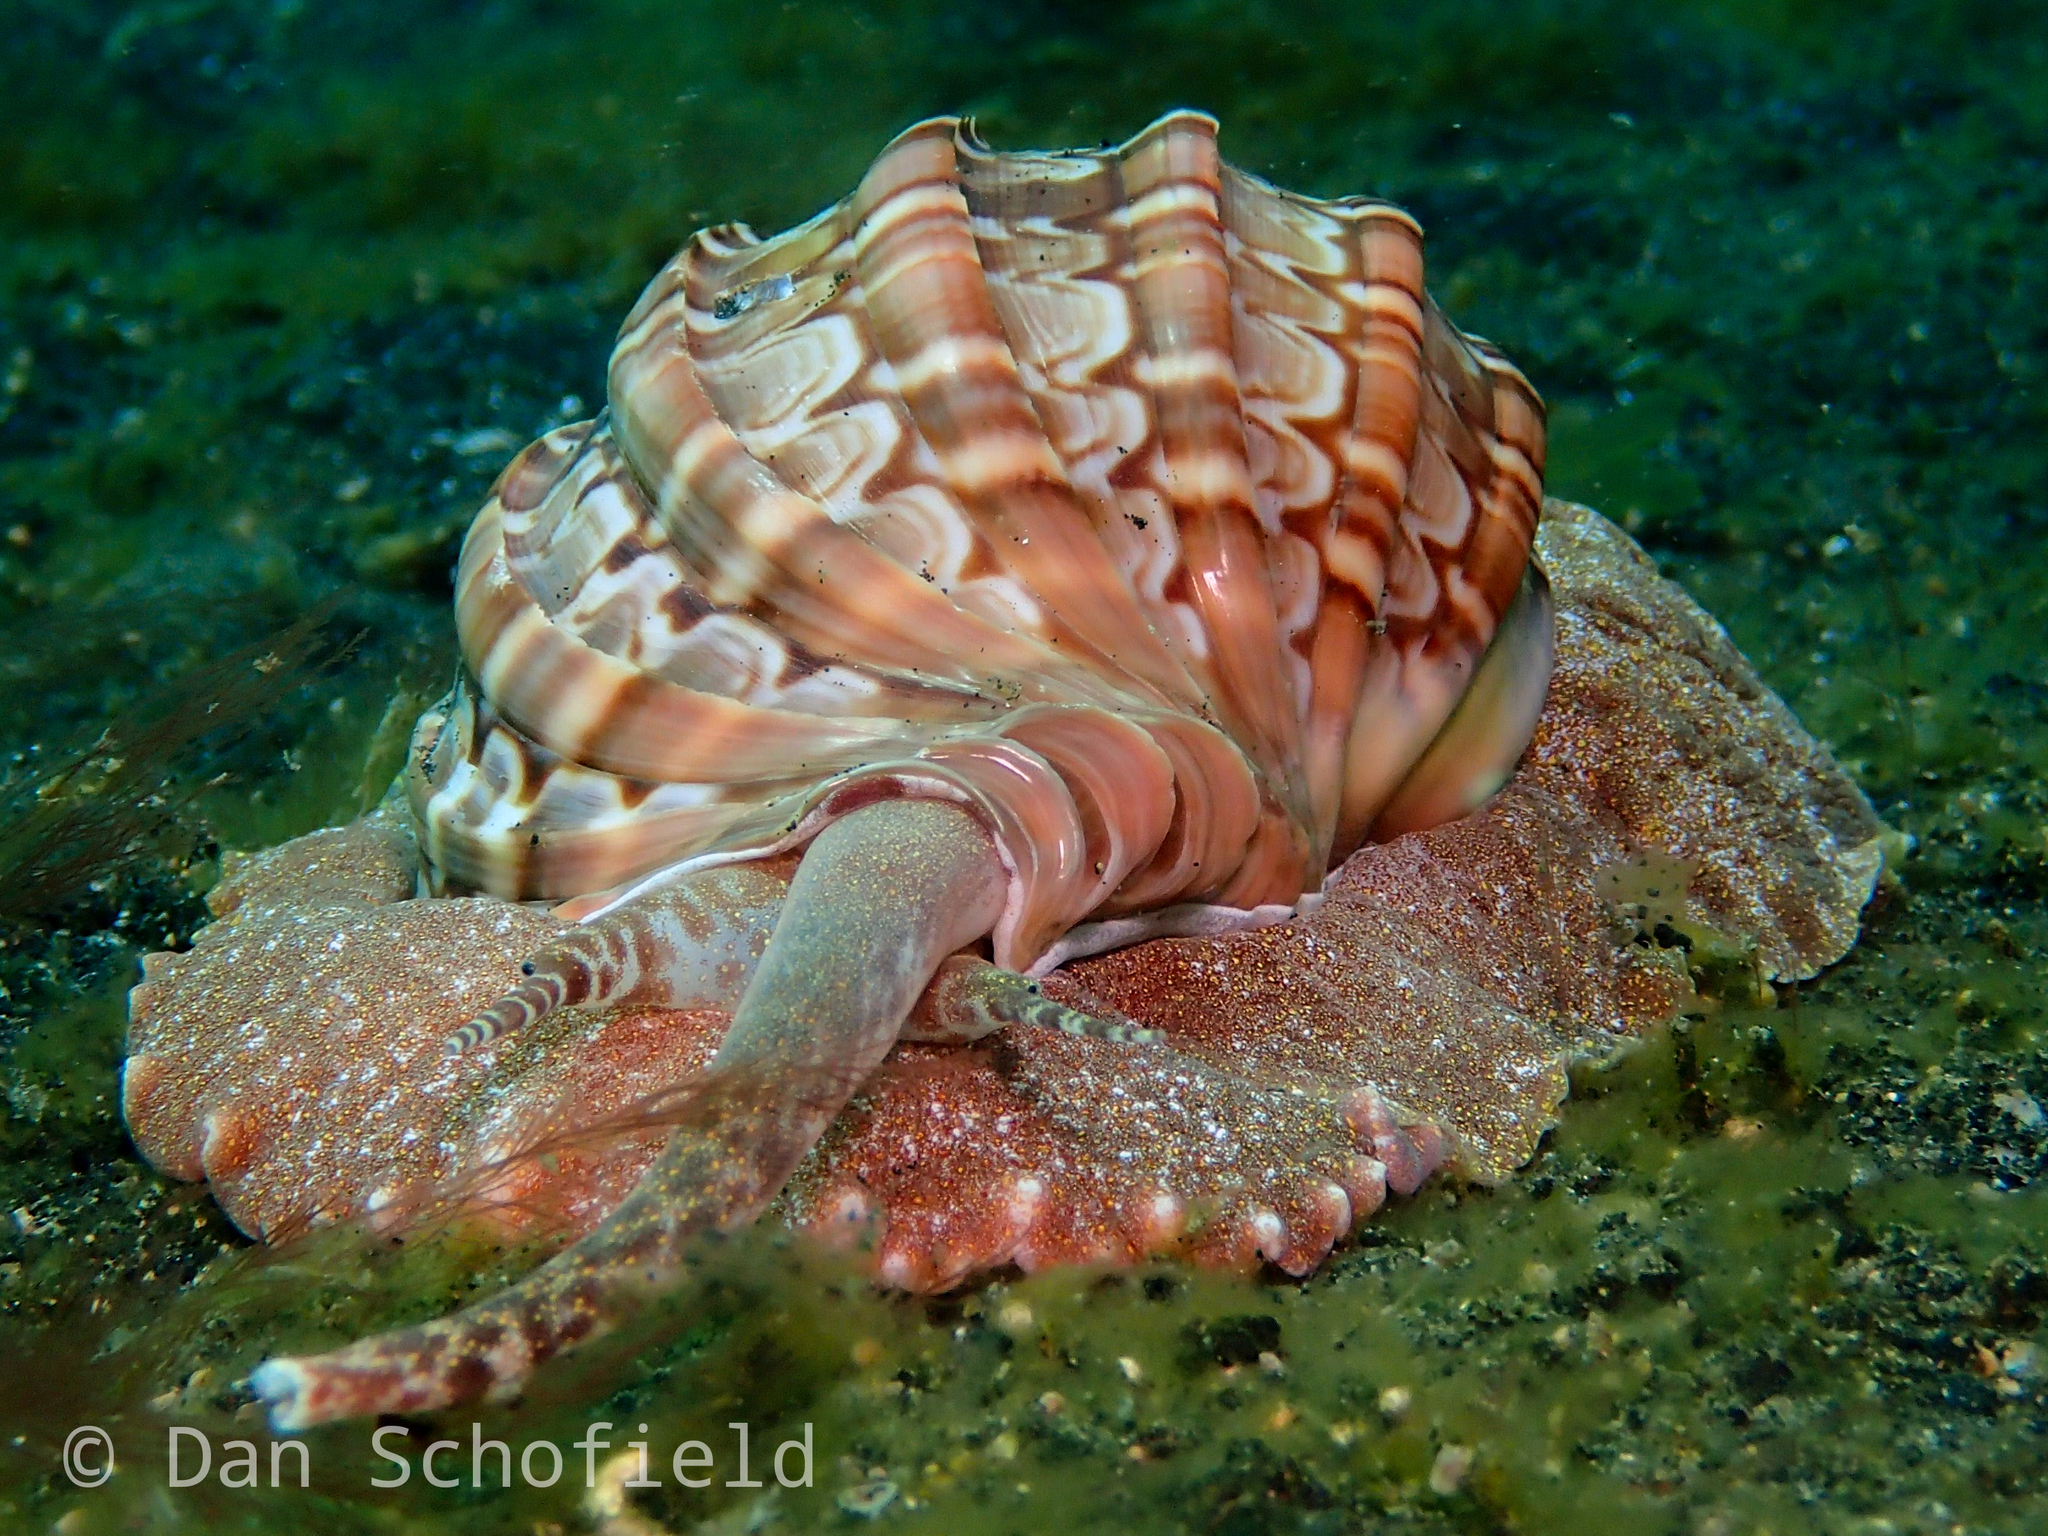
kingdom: Animalia
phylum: Mollusca
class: Gastropoda
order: Neogastropoda
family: Harpidae
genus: Harpa
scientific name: Harpa major
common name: Large harp
